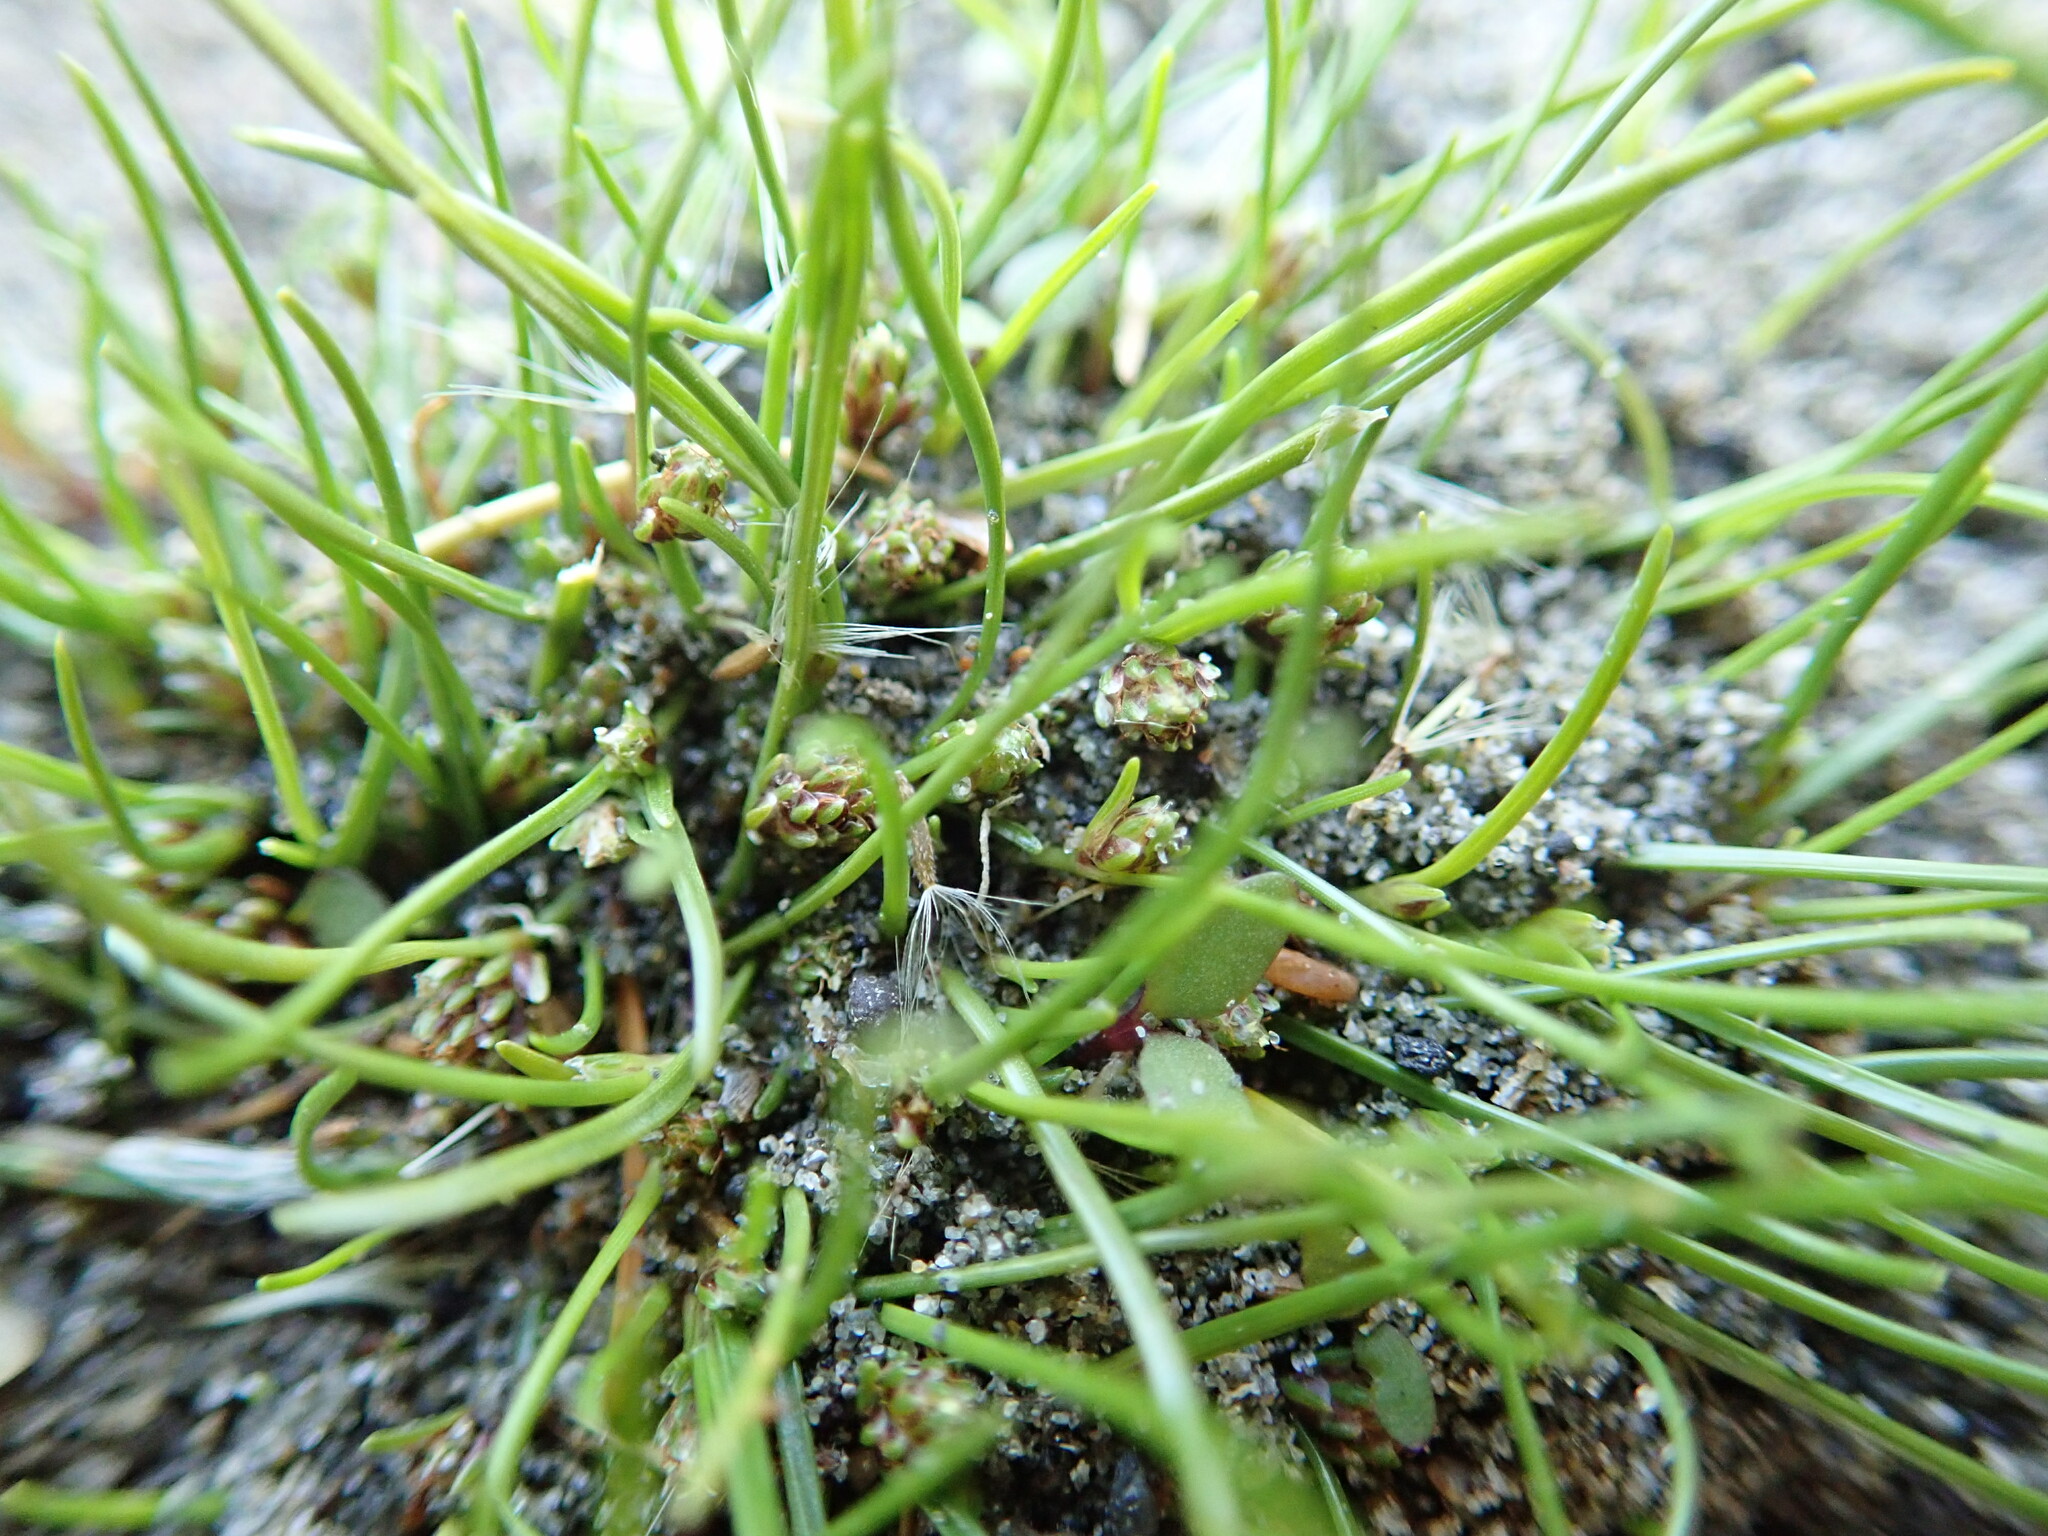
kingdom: Plantae
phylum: Tracheophyta
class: Liliopsida
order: Poales
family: Cyperaceae
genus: Isolepis
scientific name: Isolepis basilaris
